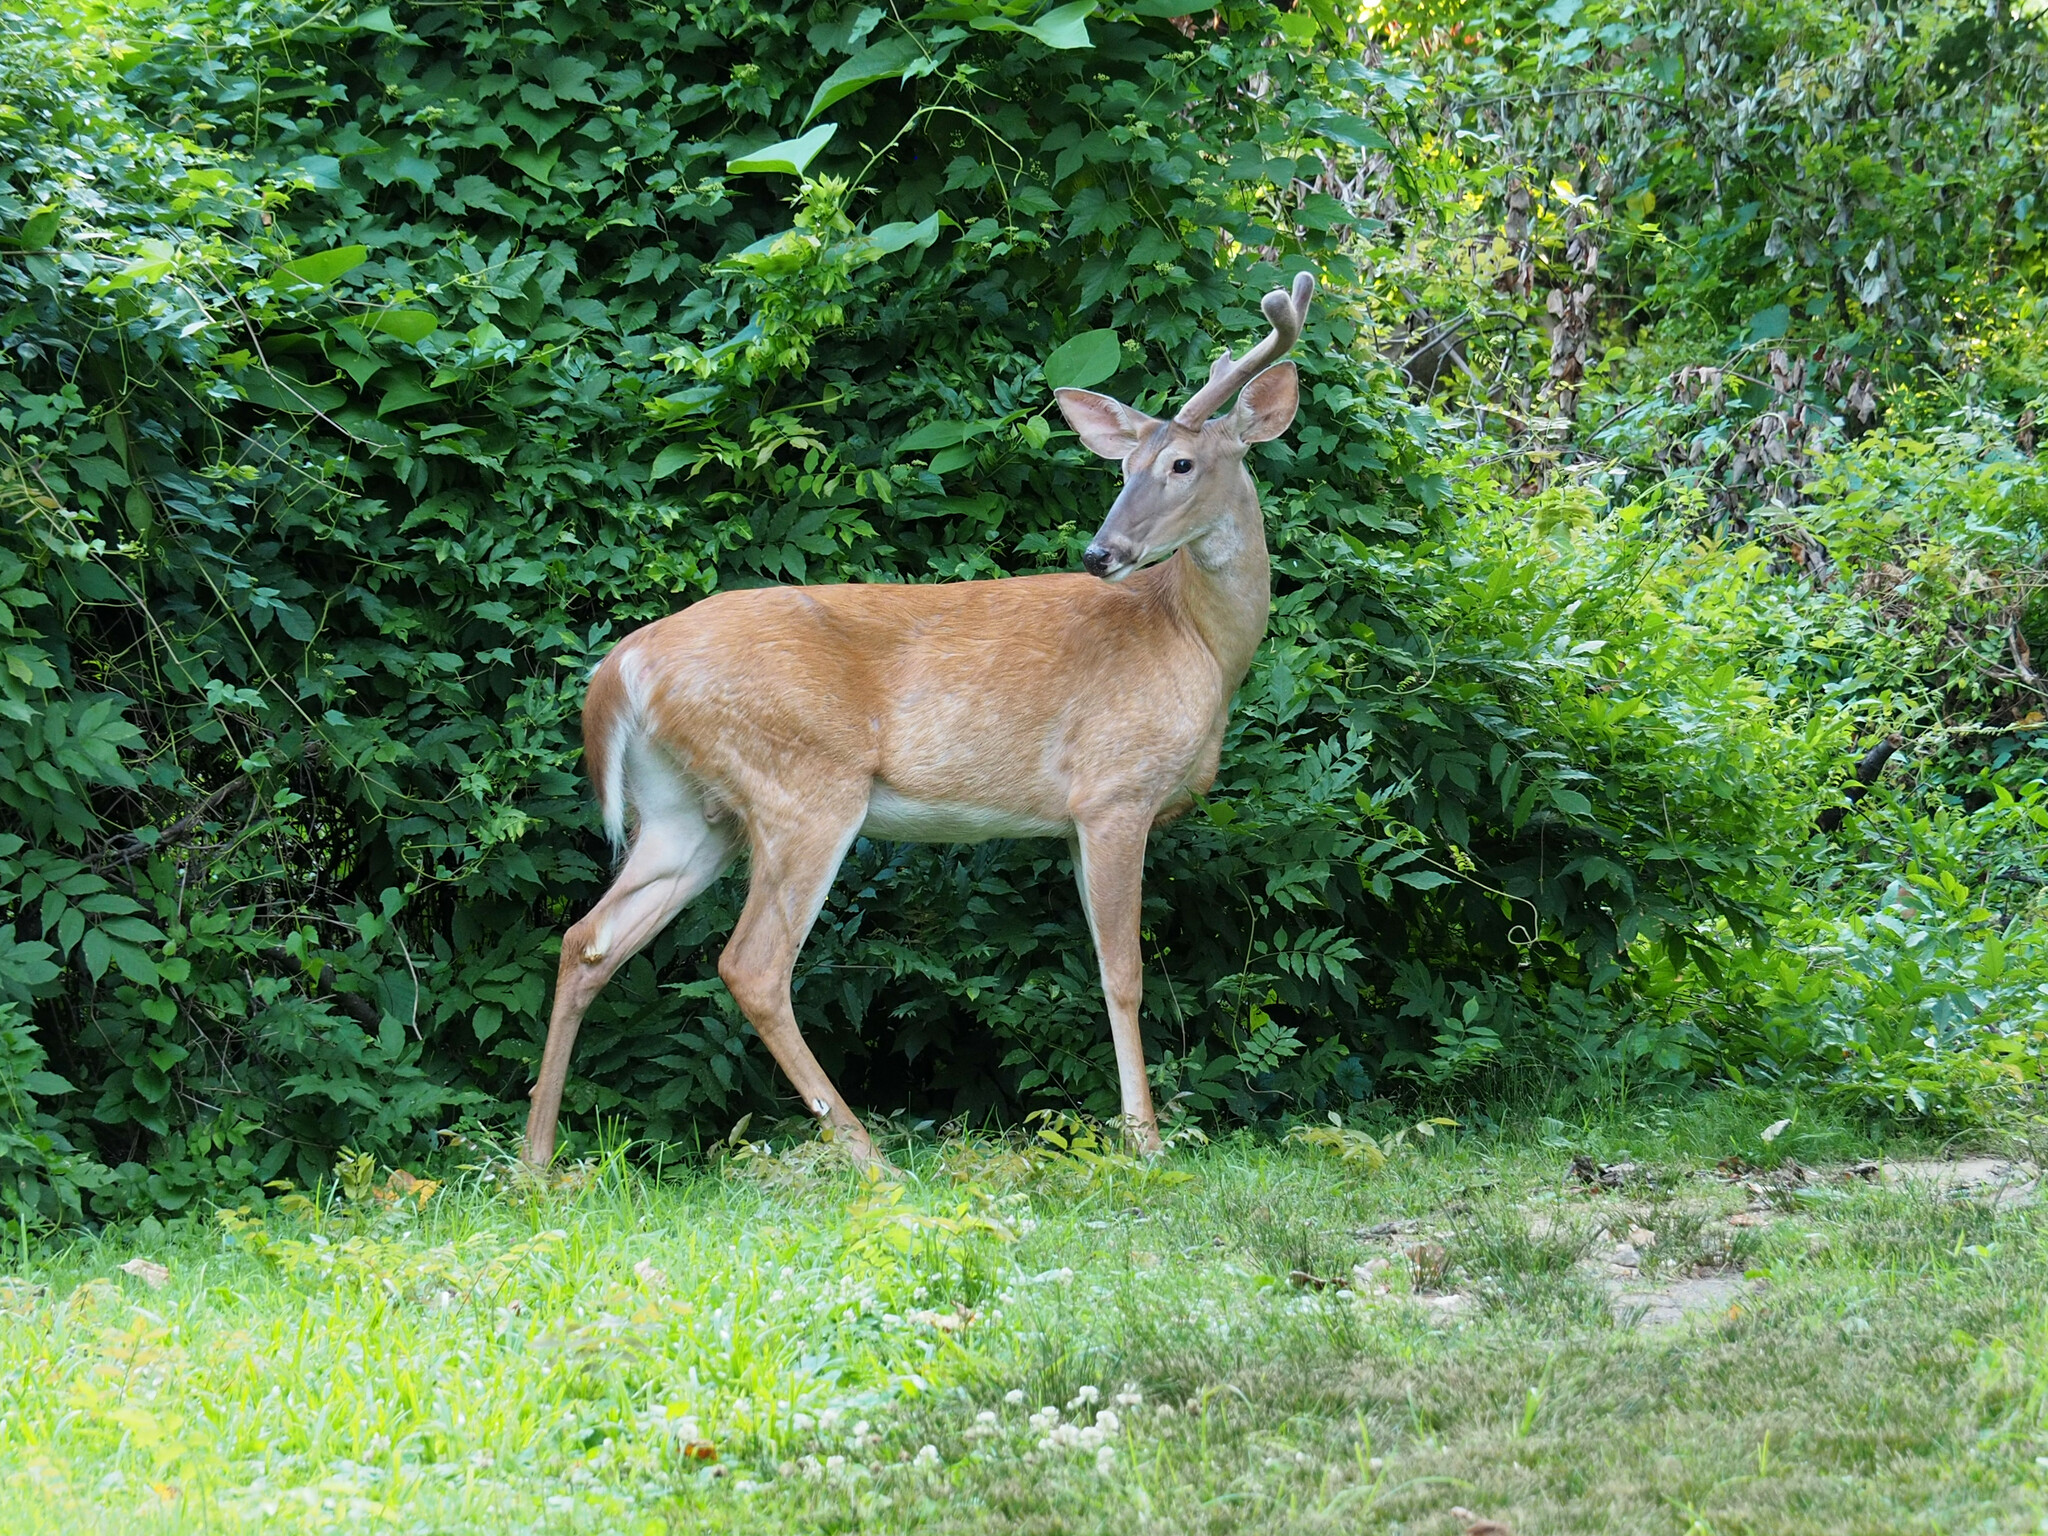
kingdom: Animalia
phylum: Chordata
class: Mammalia
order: Artiodactyla
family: Cervidae
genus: Odocoileus
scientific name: Odocoileus virginianus
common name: White-tailed deer
